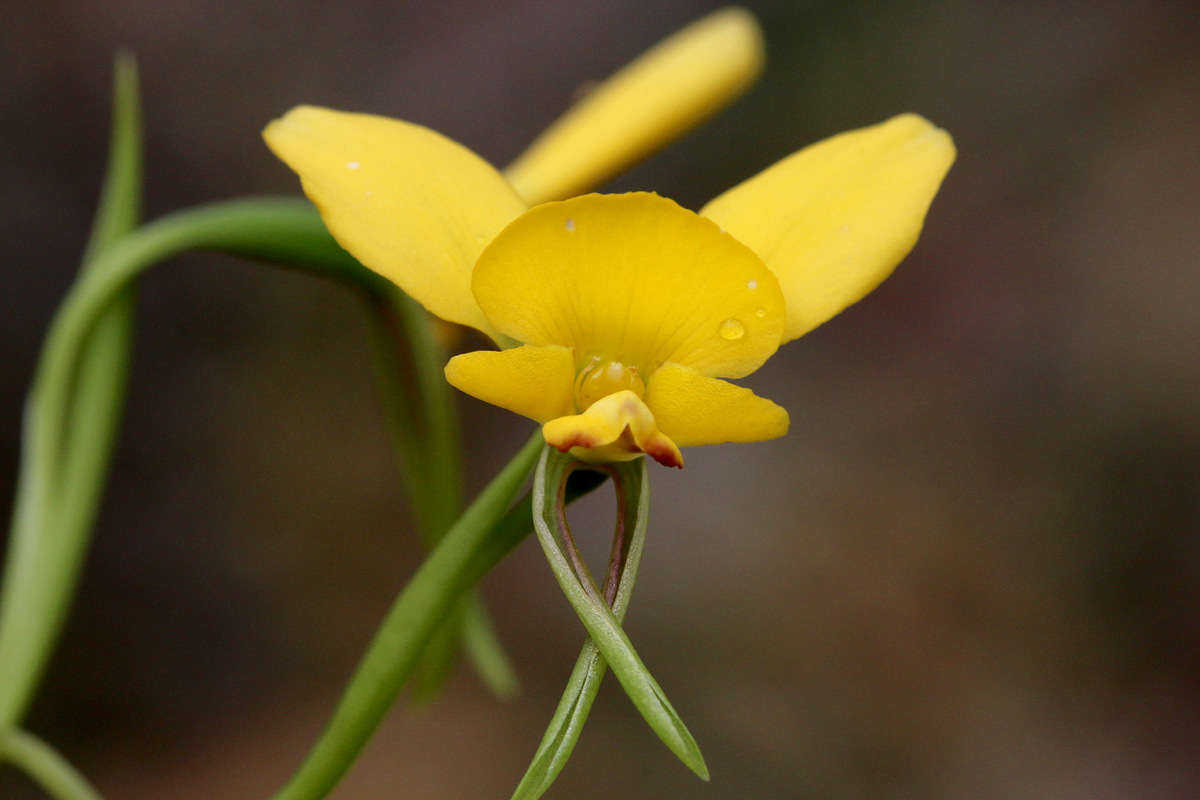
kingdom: Plantae
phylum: Tracheophyta
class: Liliopsida
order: Asparagales
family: Orchidaceae
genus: Diuris
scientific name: Diuris orientis
